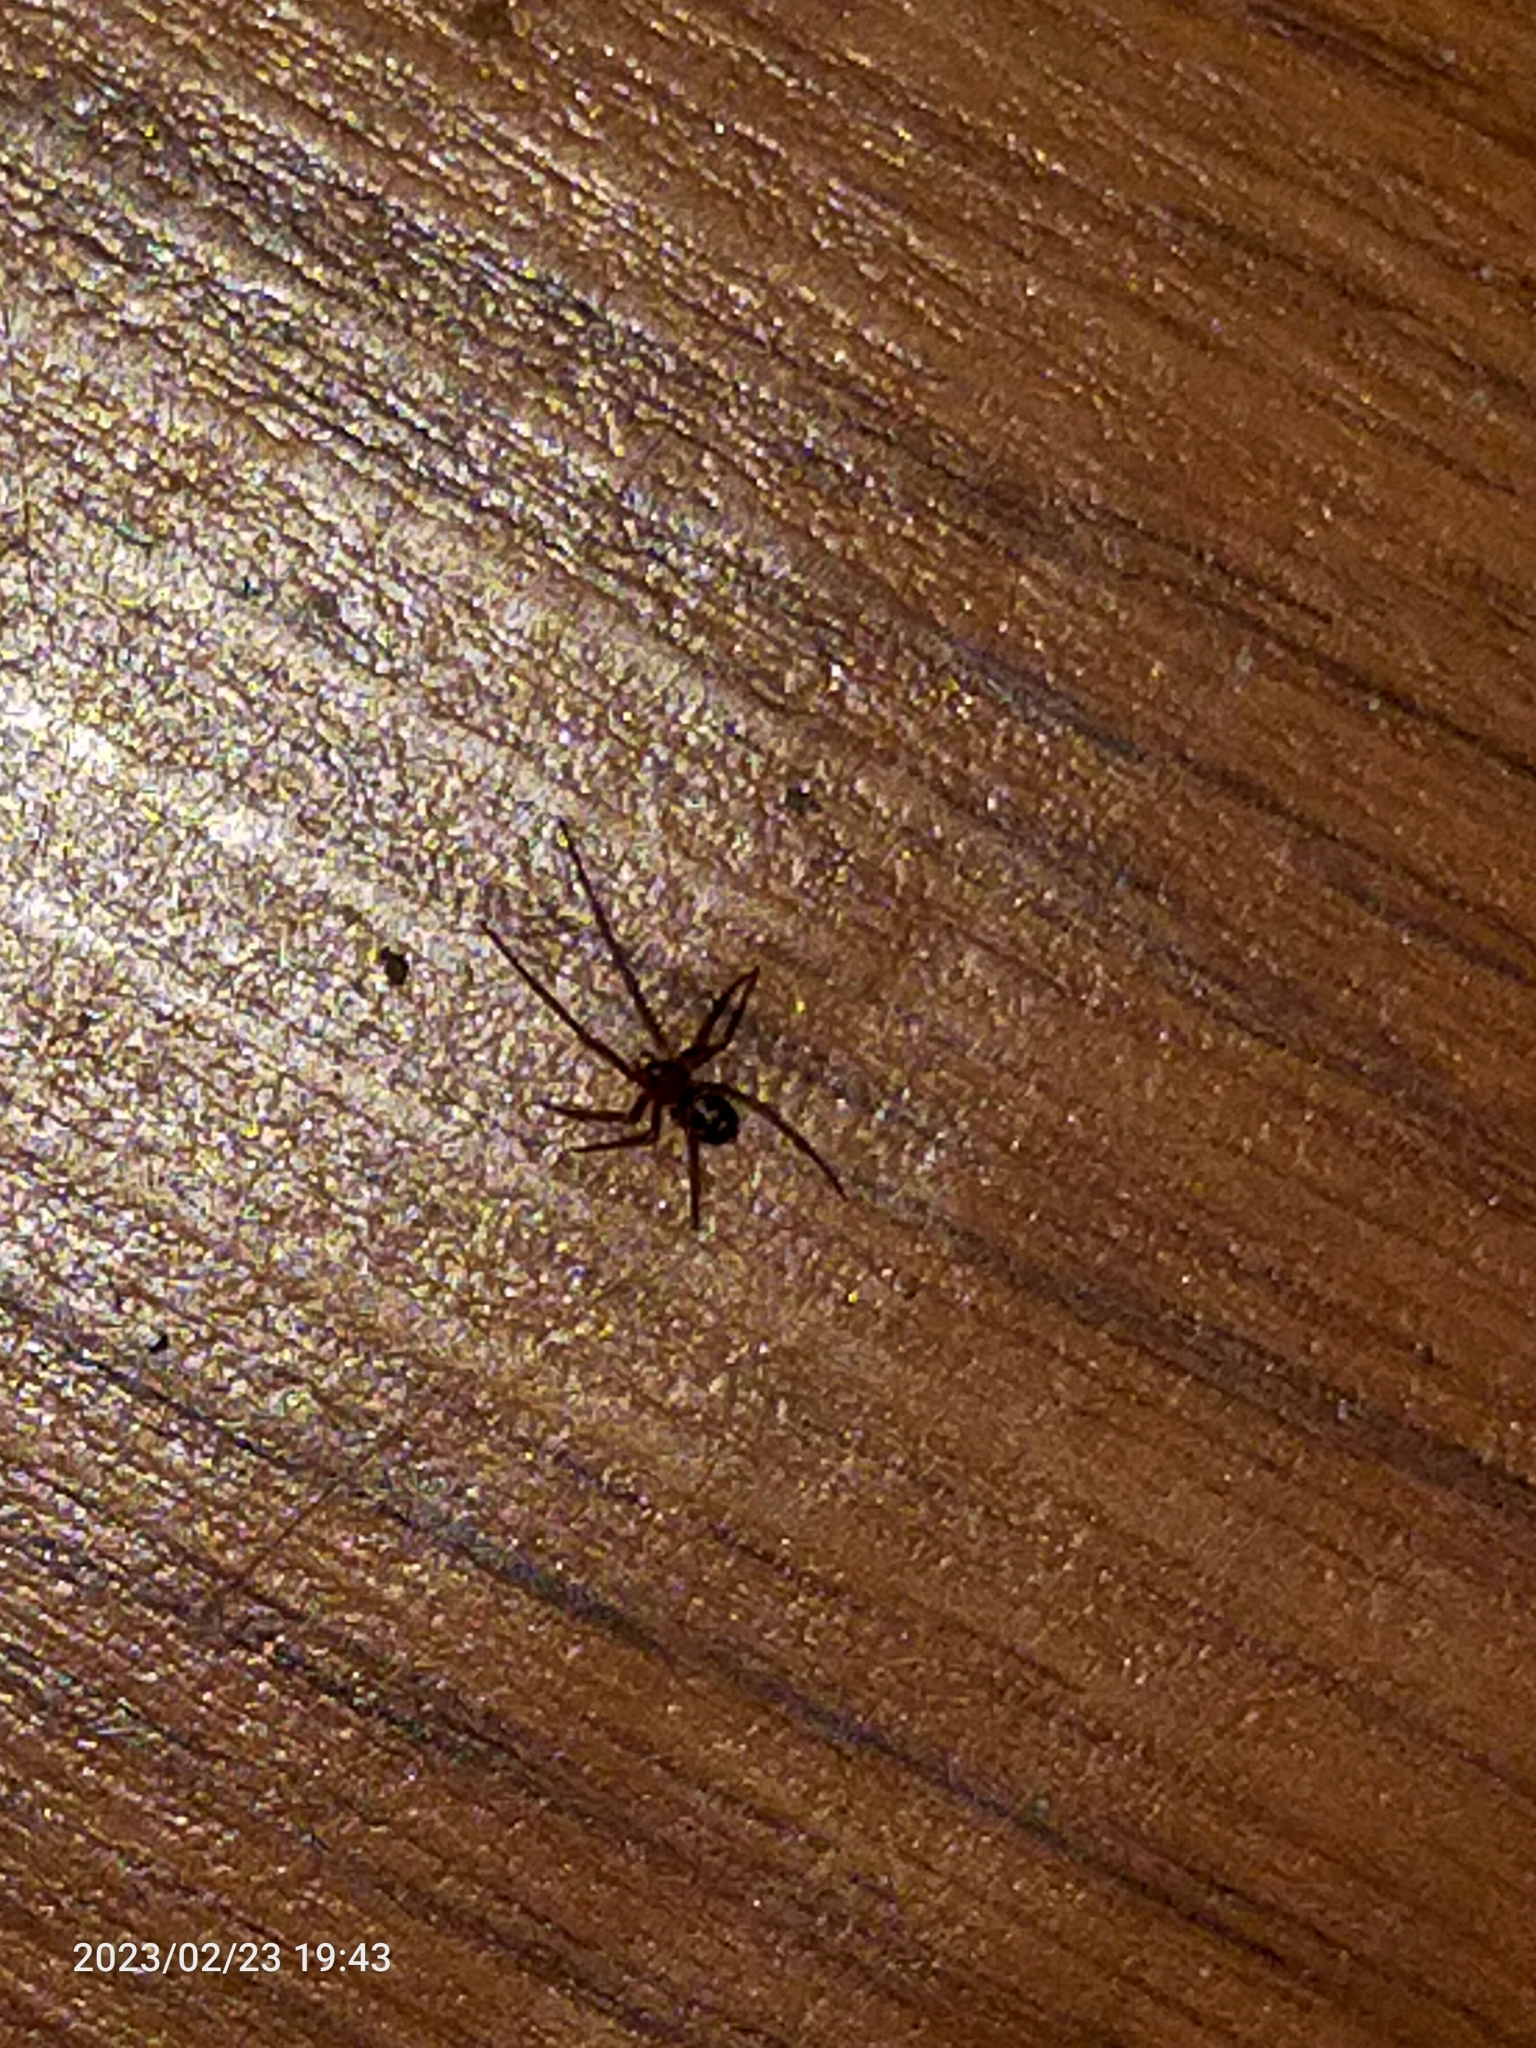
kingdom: Animalia
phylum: Arthropoda
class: Arachnida
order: Araneae
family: Theridiidae
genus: Steatoda
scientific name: Steatoda grossa
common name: False black widow
